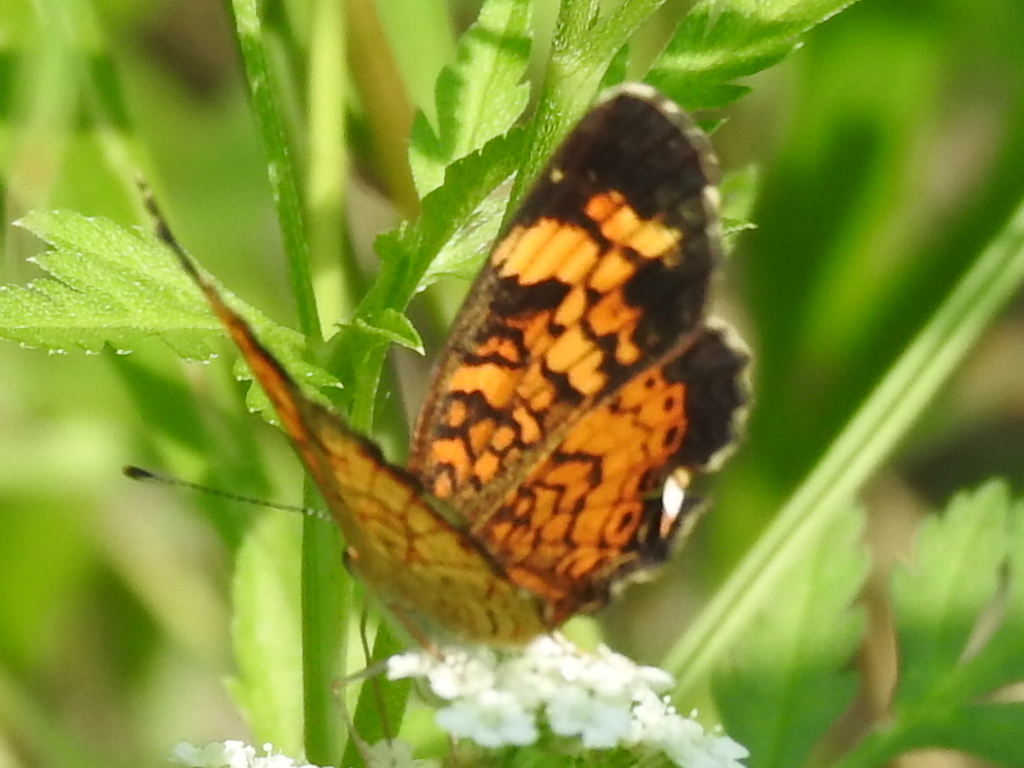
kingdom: Animalia
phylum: Arthropoda
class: Insecta
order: Lepidoptera
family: Nymphalidae
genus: Phyciodes
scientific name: Phyciodes tharos
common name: Pearl crescent
